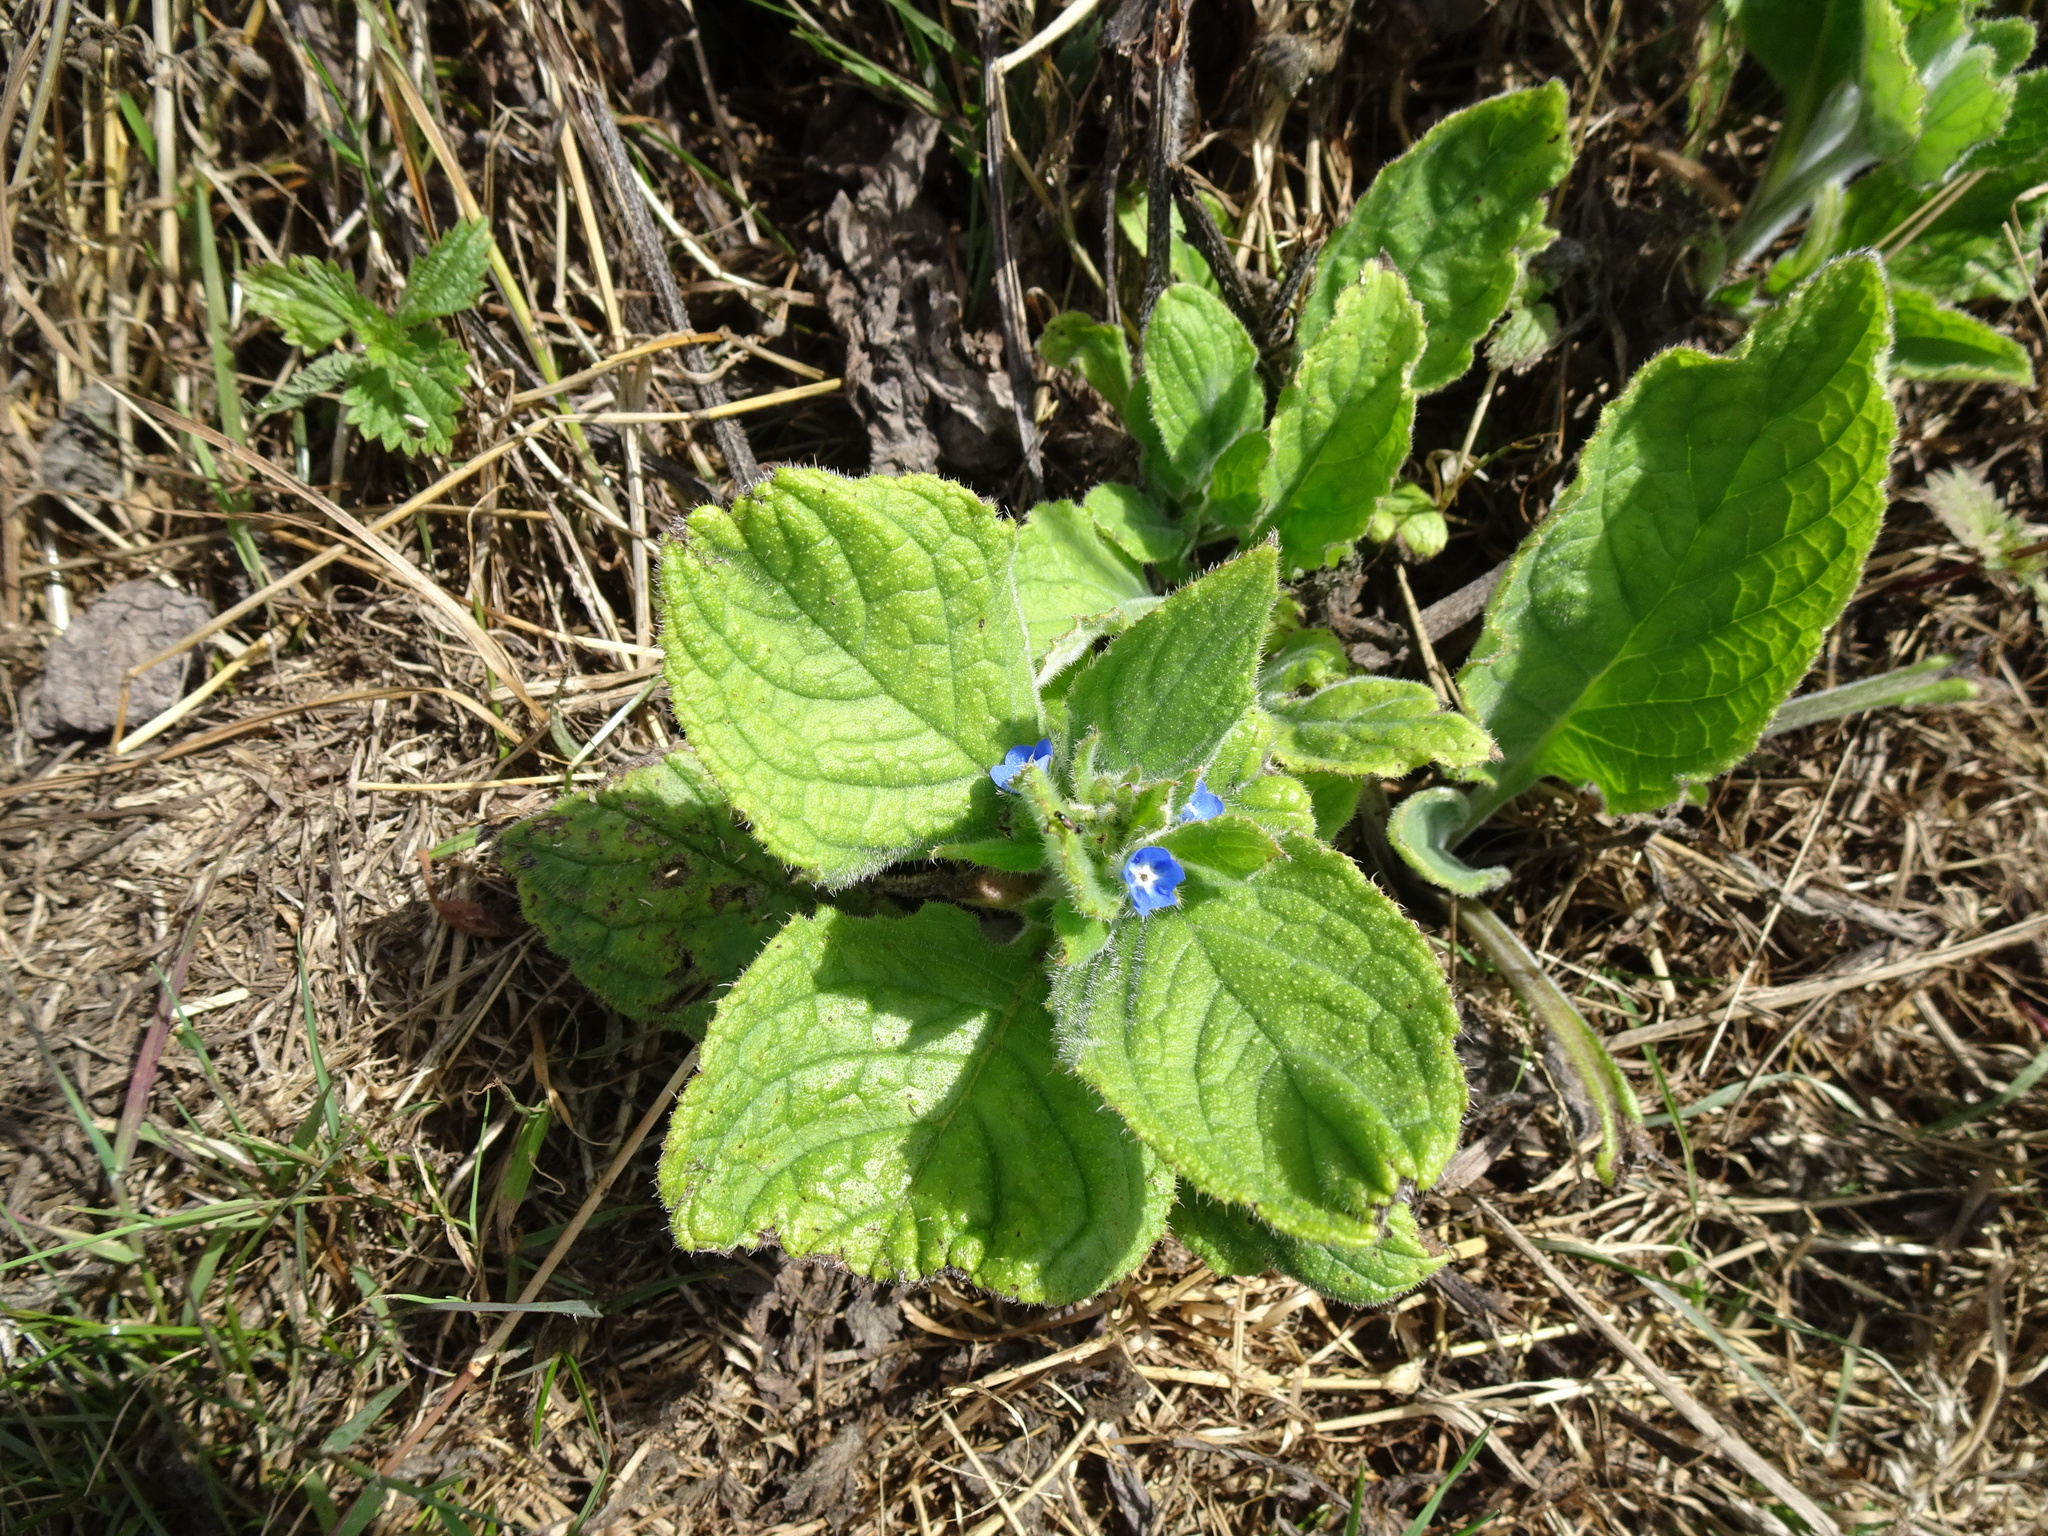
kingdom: Plantae
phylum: Tracheophyta
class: Magnoliopsida
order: Boraginales
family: Boraginaceae
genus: Pentaglottis
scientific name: Pentaglottis sempervirens
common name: Green alkanet
